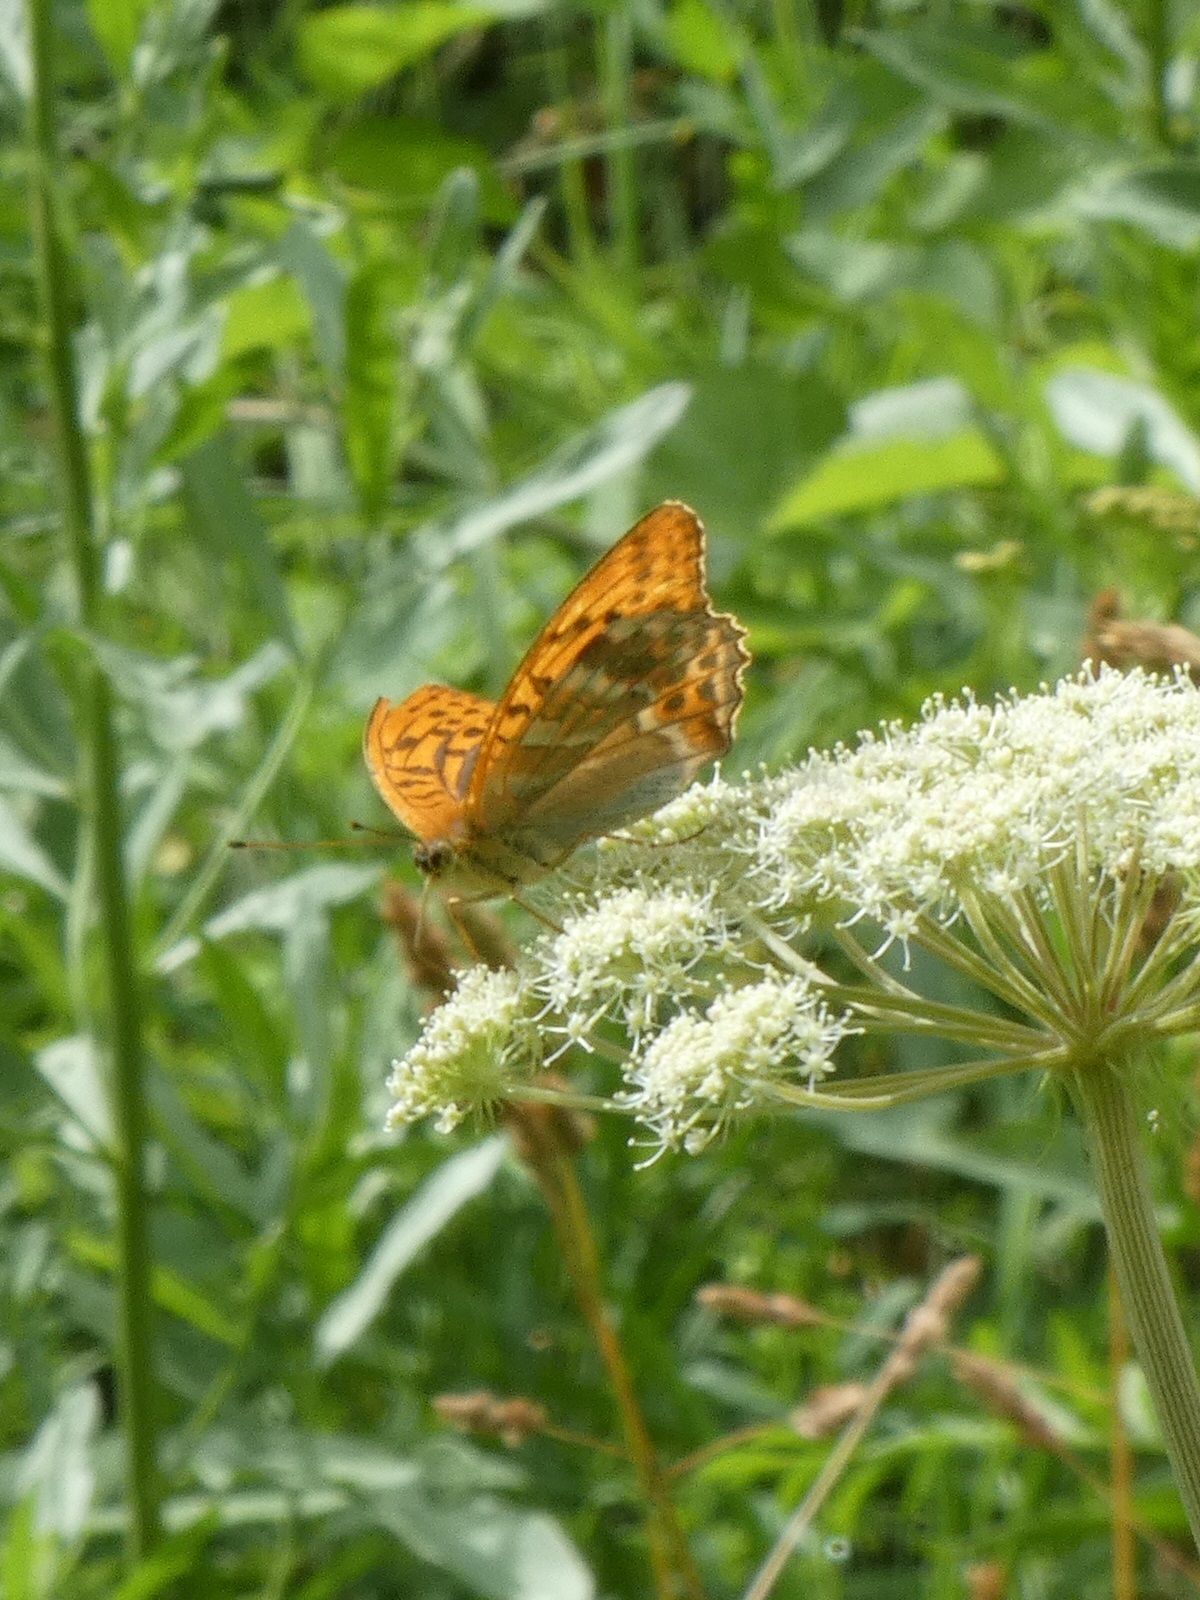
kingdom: Animalia
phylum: Arthropoda
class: Insecta
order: Lepidoptera
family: Nymphalidae
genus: Argynnis
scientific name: Argynnis paphia
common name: Silver-washed fritillary
